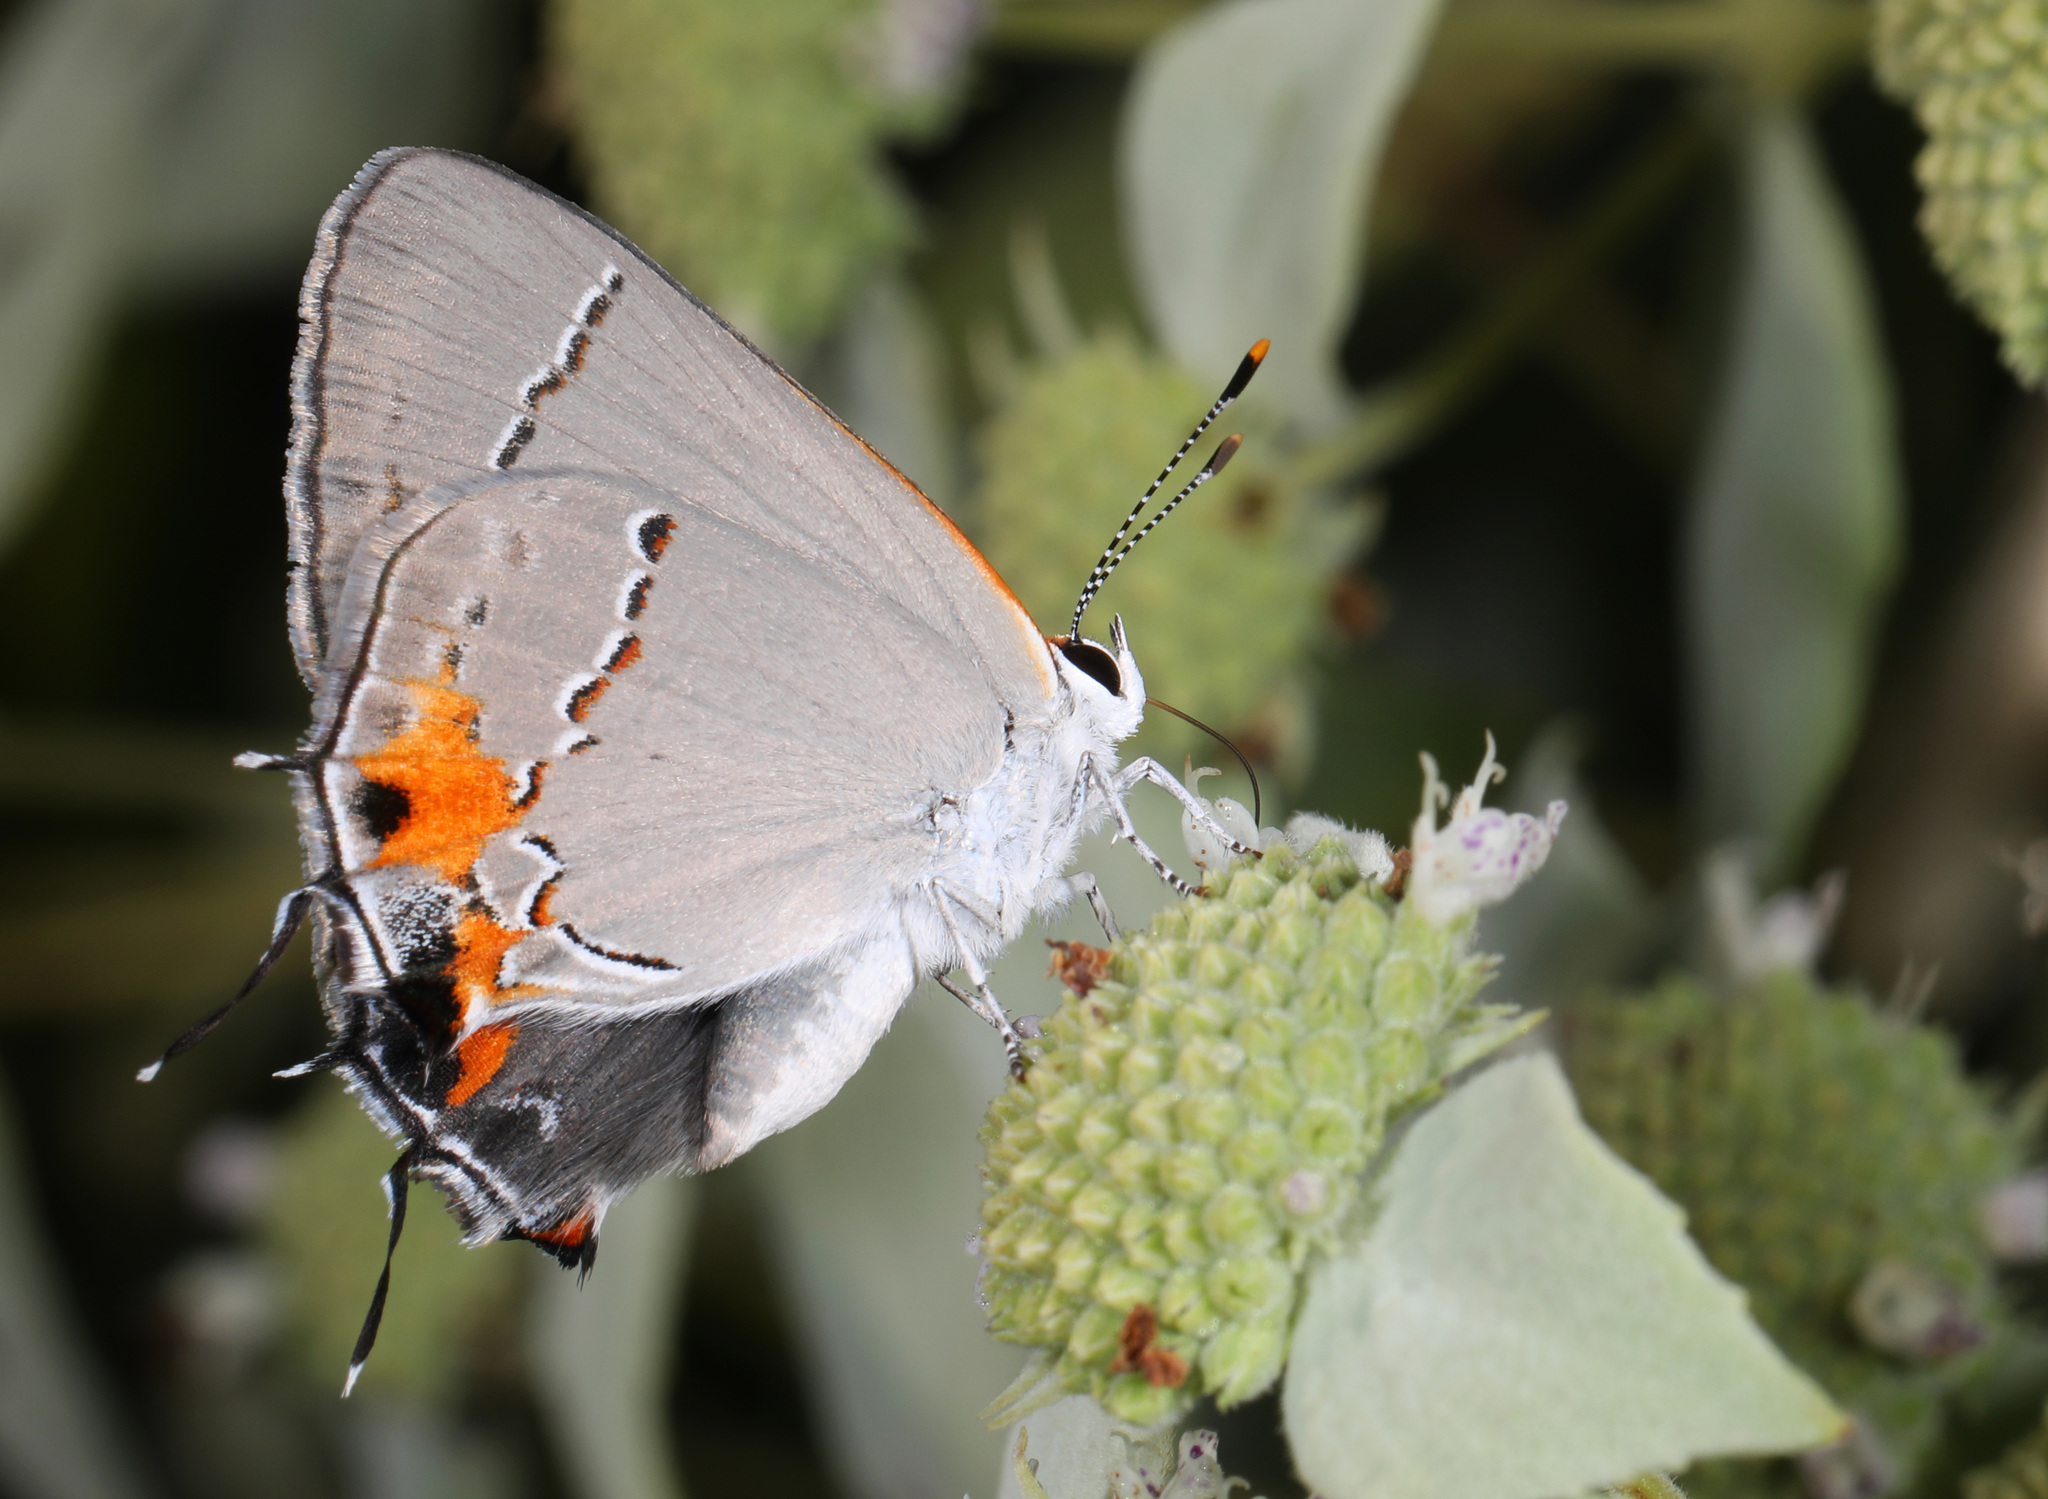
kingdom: Animalia
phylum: Arthropoda
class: Insecta
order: Lepidoptera
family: Lycaenidae
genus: Strymon
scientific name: Strymon melinus
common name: Gray hairstreak
